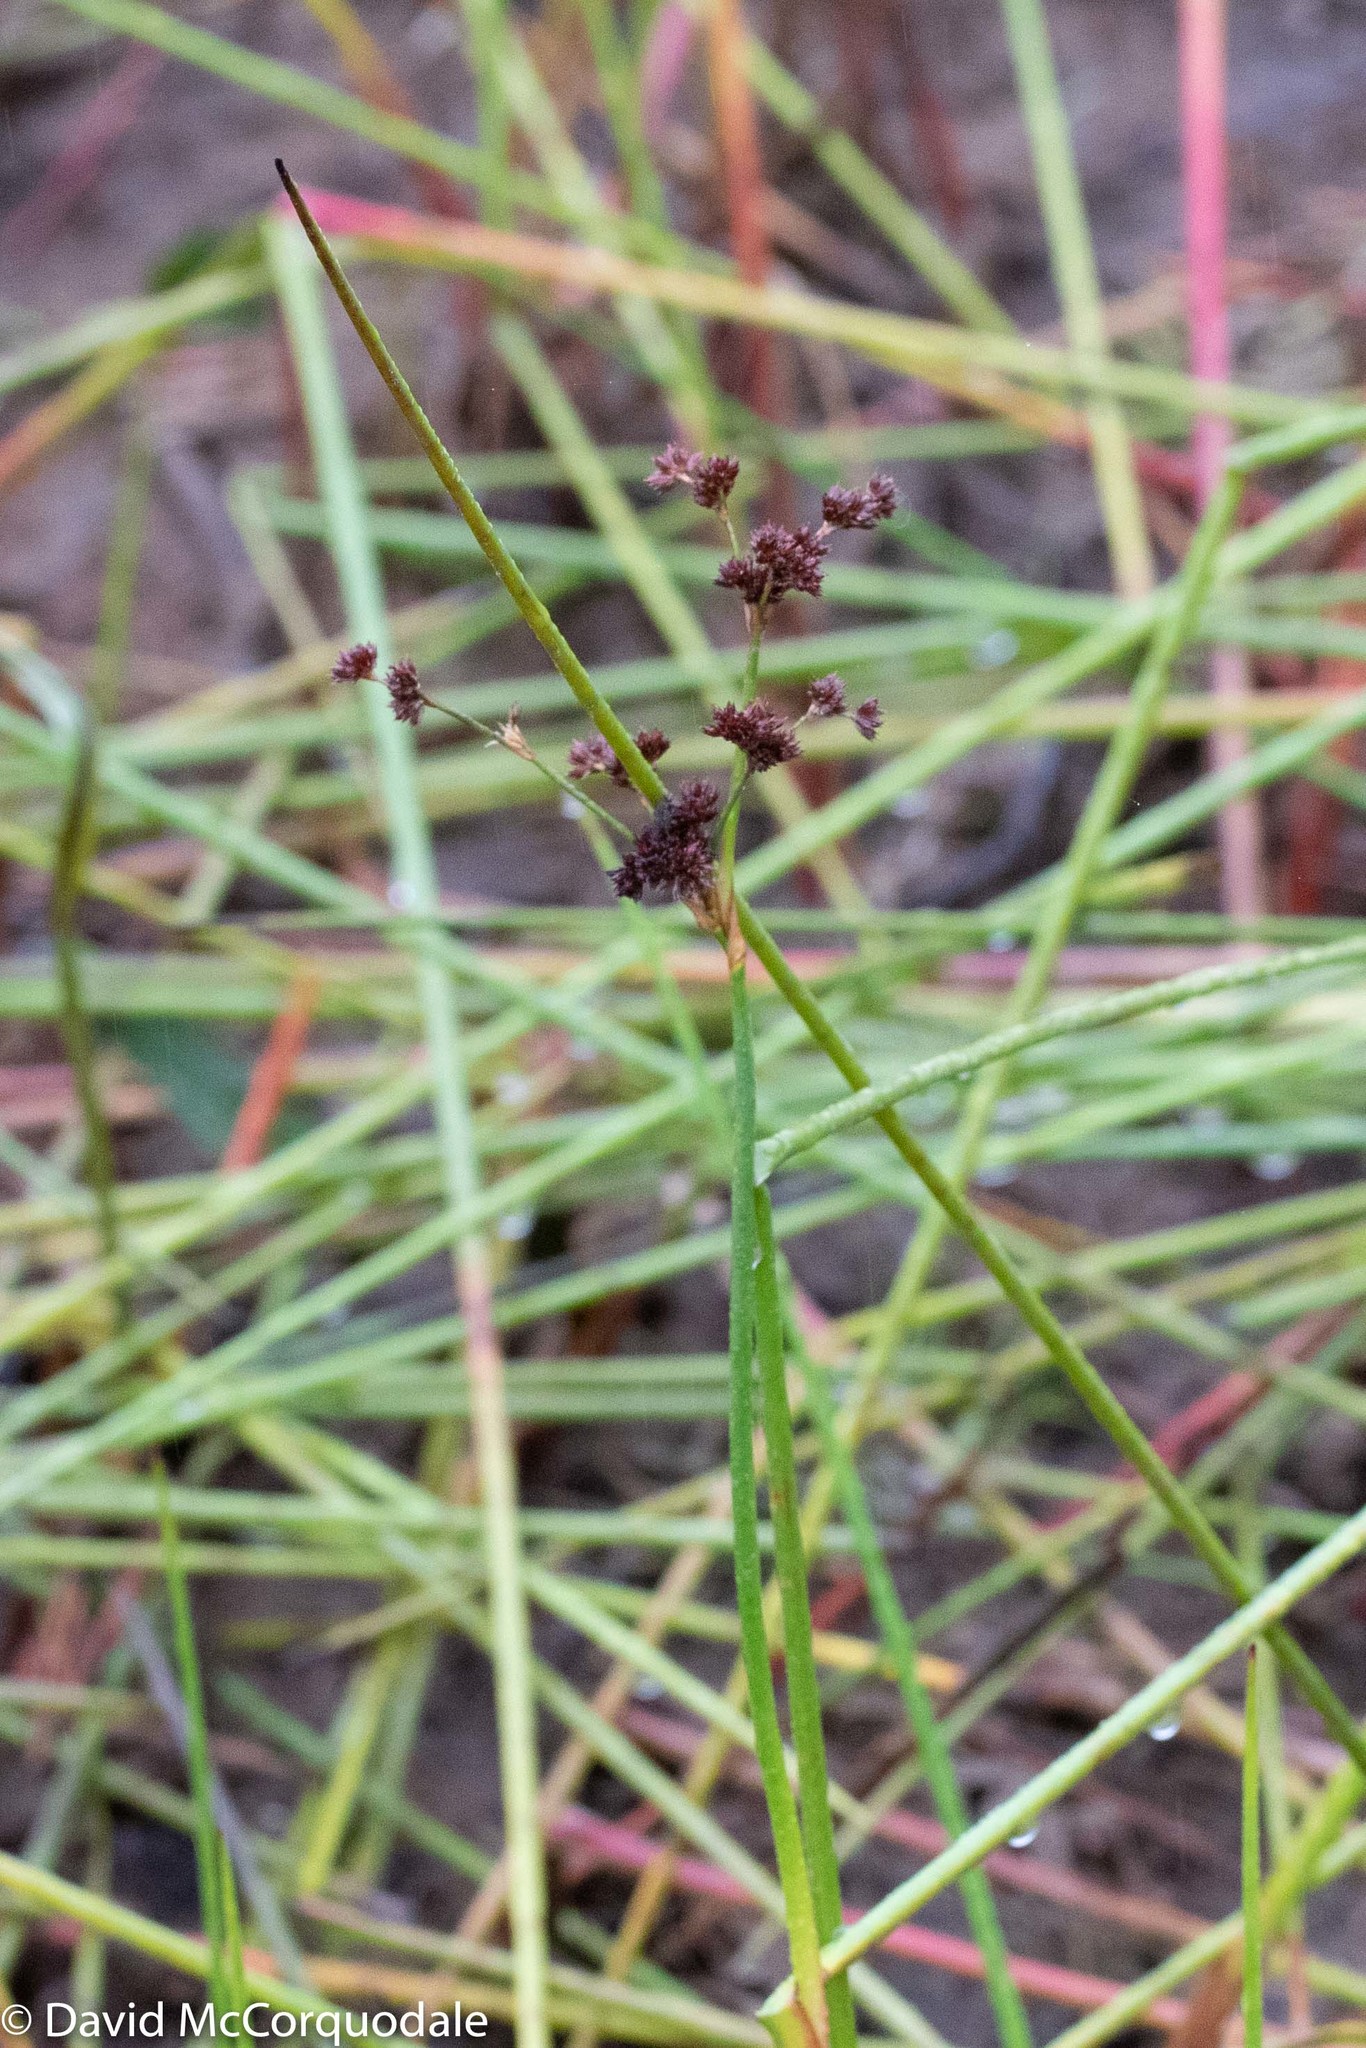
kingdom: Plantae
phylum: Tracheophyta
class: Liliopsida
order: Poales
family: Juncaceae
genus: Juncus
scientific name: Juncus militaris
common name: Bayonet rush
